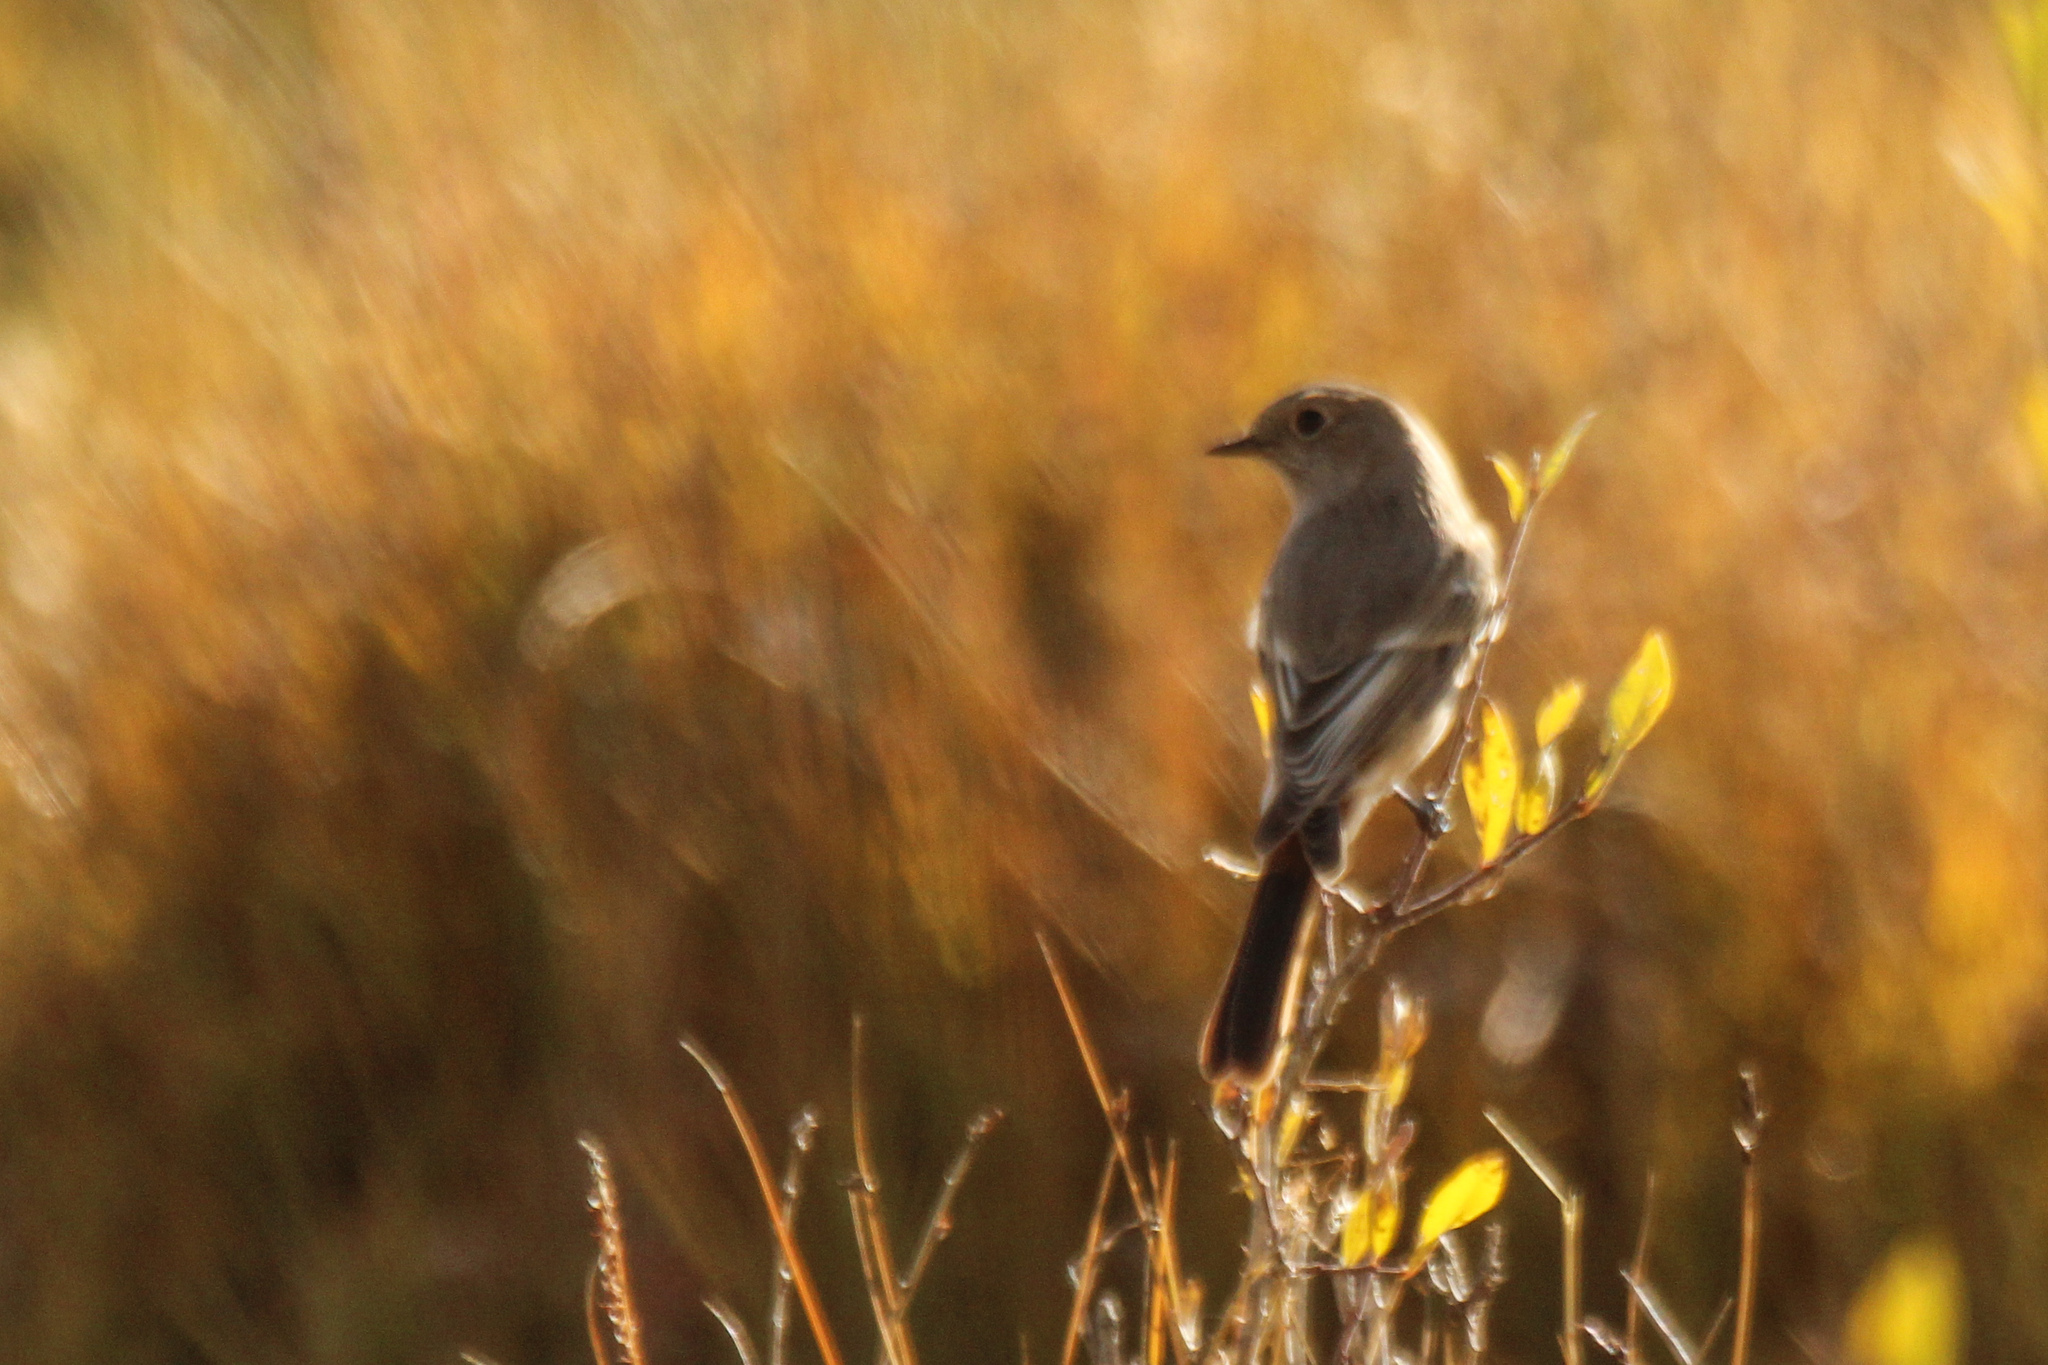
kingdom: Animalia
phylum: Chordata
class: Aves
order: Passeriformes
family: Muscicapidae
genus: Phoenicurus
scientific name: Phoenicurus erythronotus
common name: Eversmann's redstart
